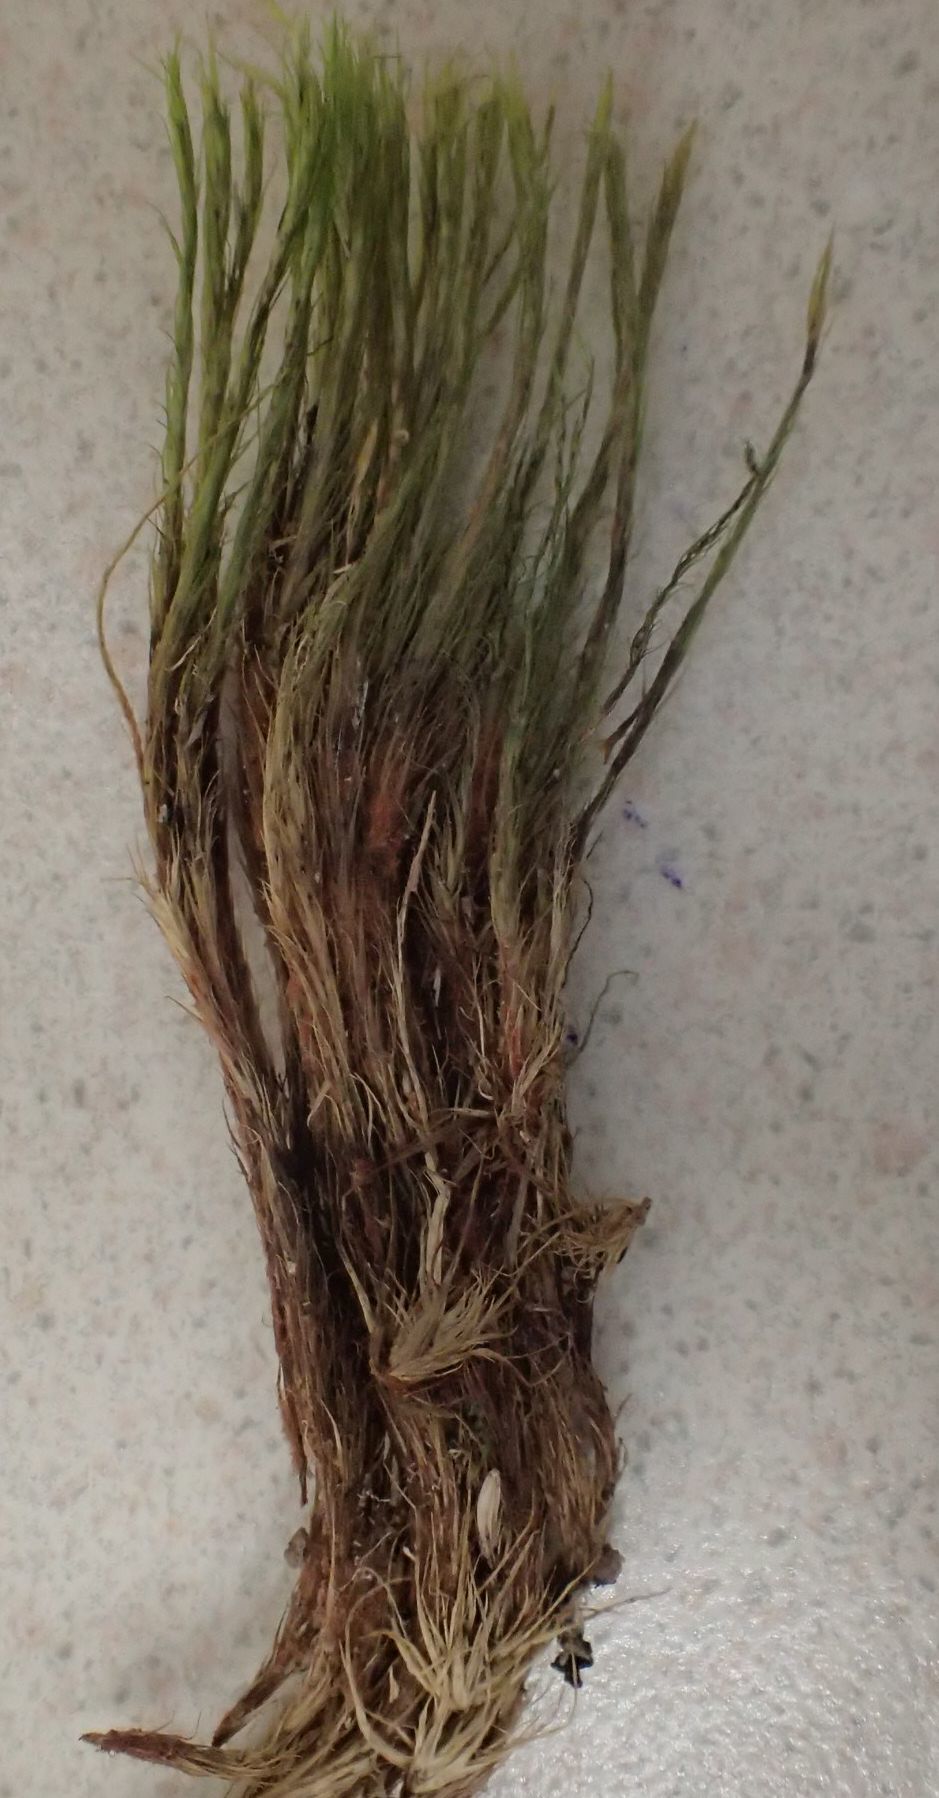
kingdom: Plantae
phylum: Bryophyta
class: Bryopsida
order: Dicranales
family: Leucobryaceae
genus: Campylopus
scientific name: Campylopus clavatus
